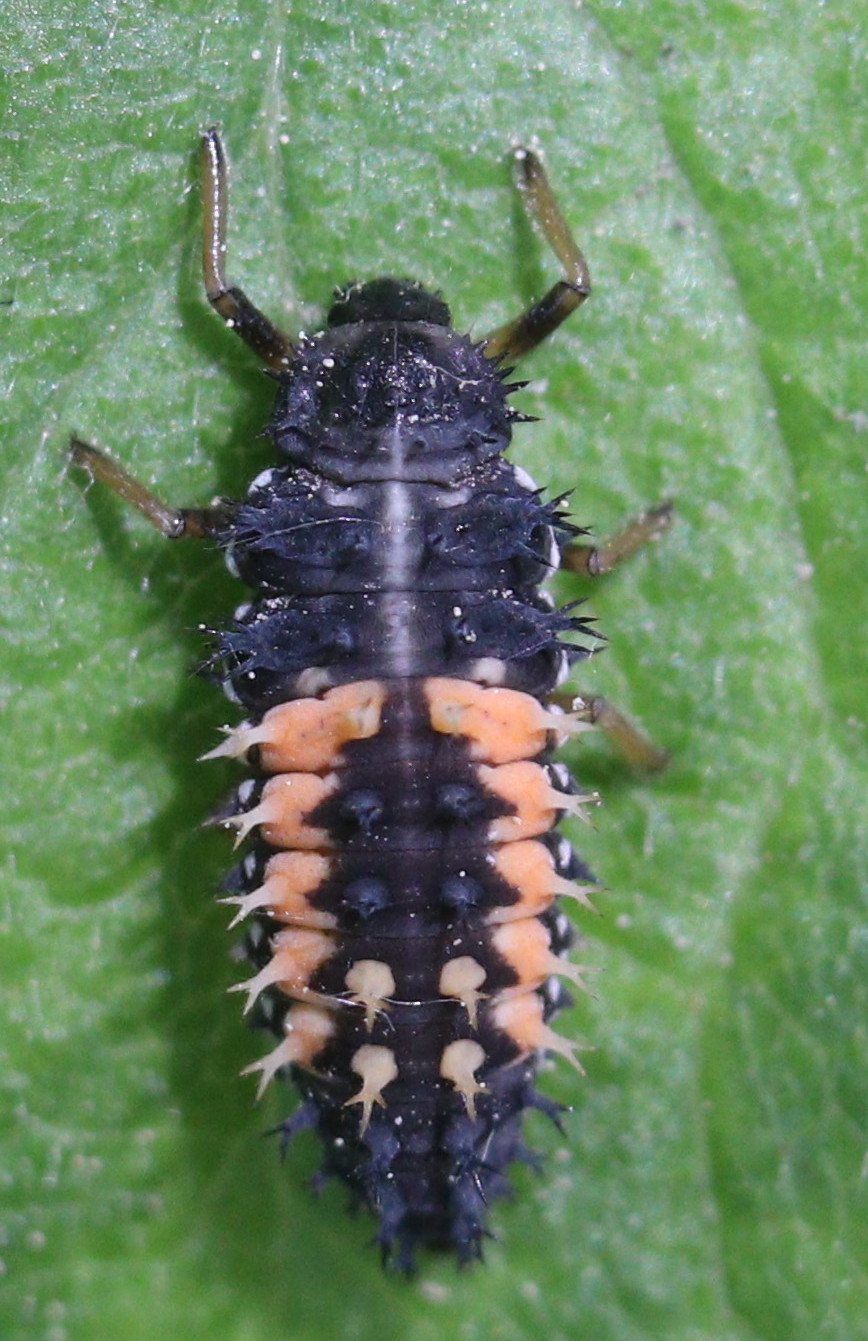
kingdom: Animalia
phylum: Arthropoda
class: Insecta
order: Coleoptera
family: Coccinellidae
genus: Harmonia
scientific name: Harmonia axyridis
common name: Harlequin ladybird
